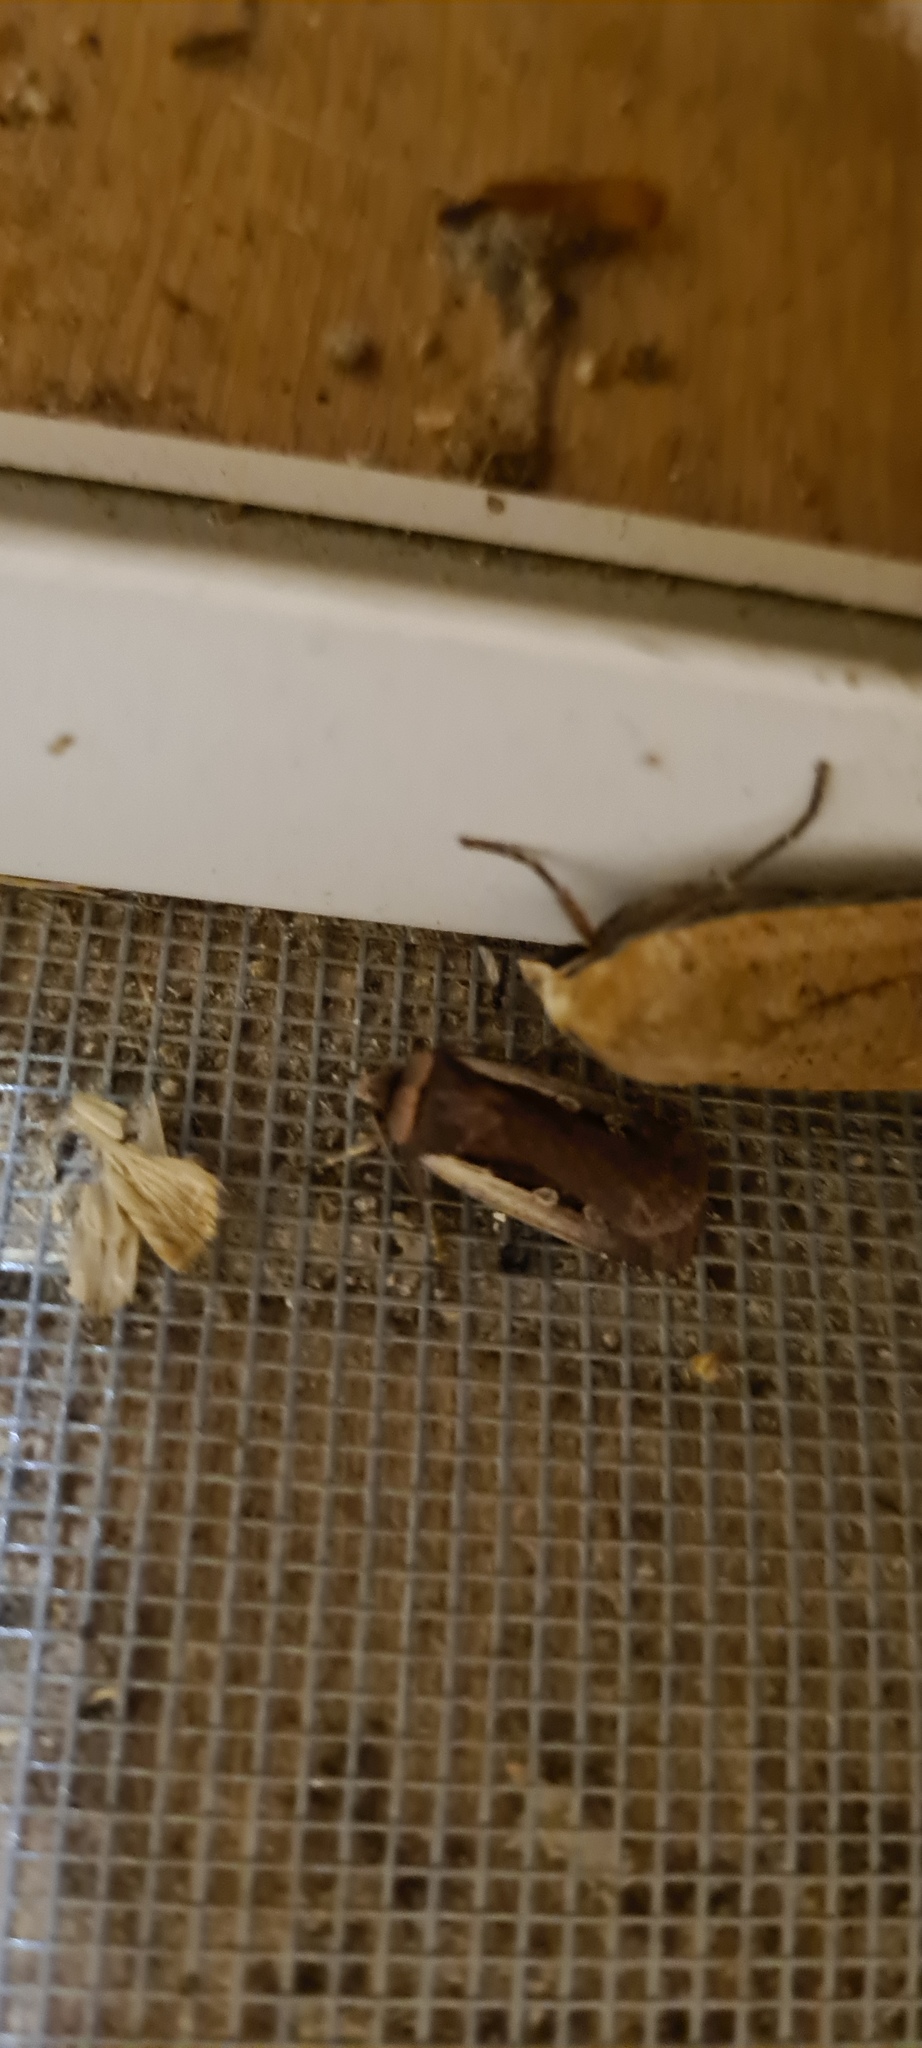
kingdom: Animalia
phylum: Arthropoda
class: Insecta
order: Lepidoptera
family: Noctuidae
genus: Ochropleura
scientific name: Ochropleura plecta
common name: Flame shoulder
